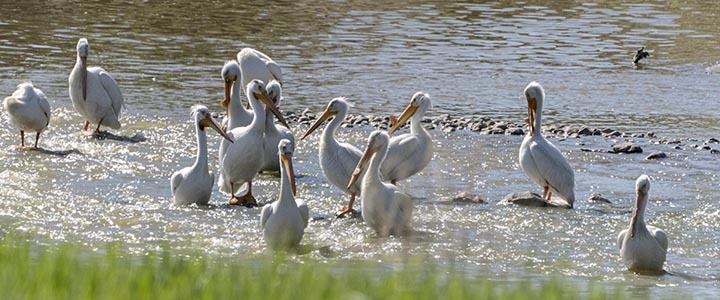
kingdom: Animalia
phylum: Chordata
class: Aves
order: Pelecaniformes
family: Pelecanidae
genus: Pelecanus
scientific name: Pelecanus erythrorhynchos
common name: American white pelican
